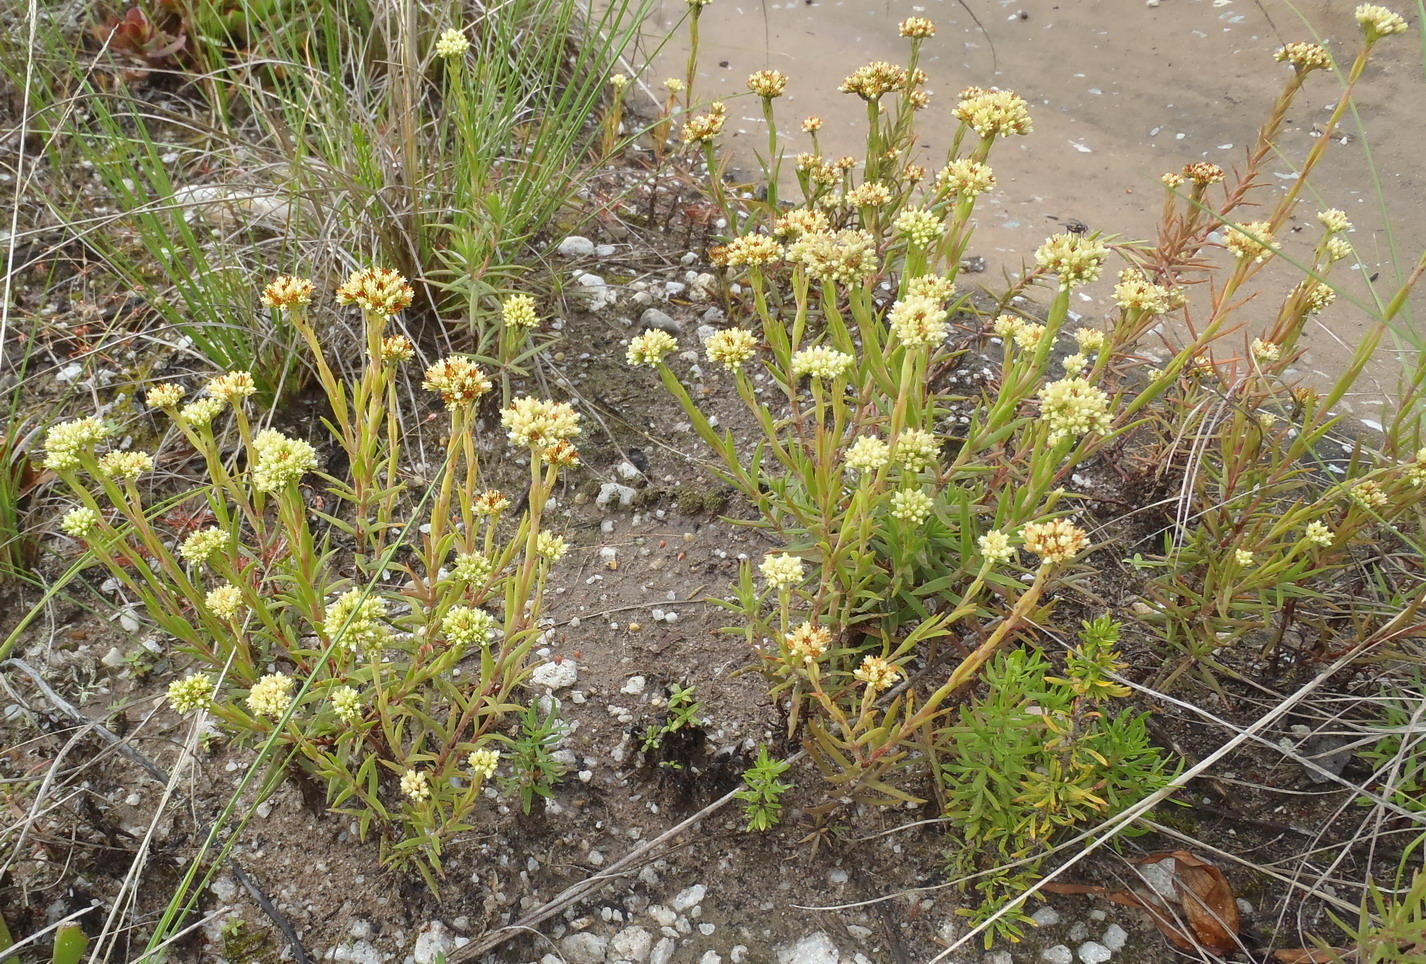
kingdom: Plantae
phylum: Tracheophyta
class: Magnoliopsida
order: Saxifragales
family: Crassulaceae
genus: Crassula
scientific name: Crassula subulata
